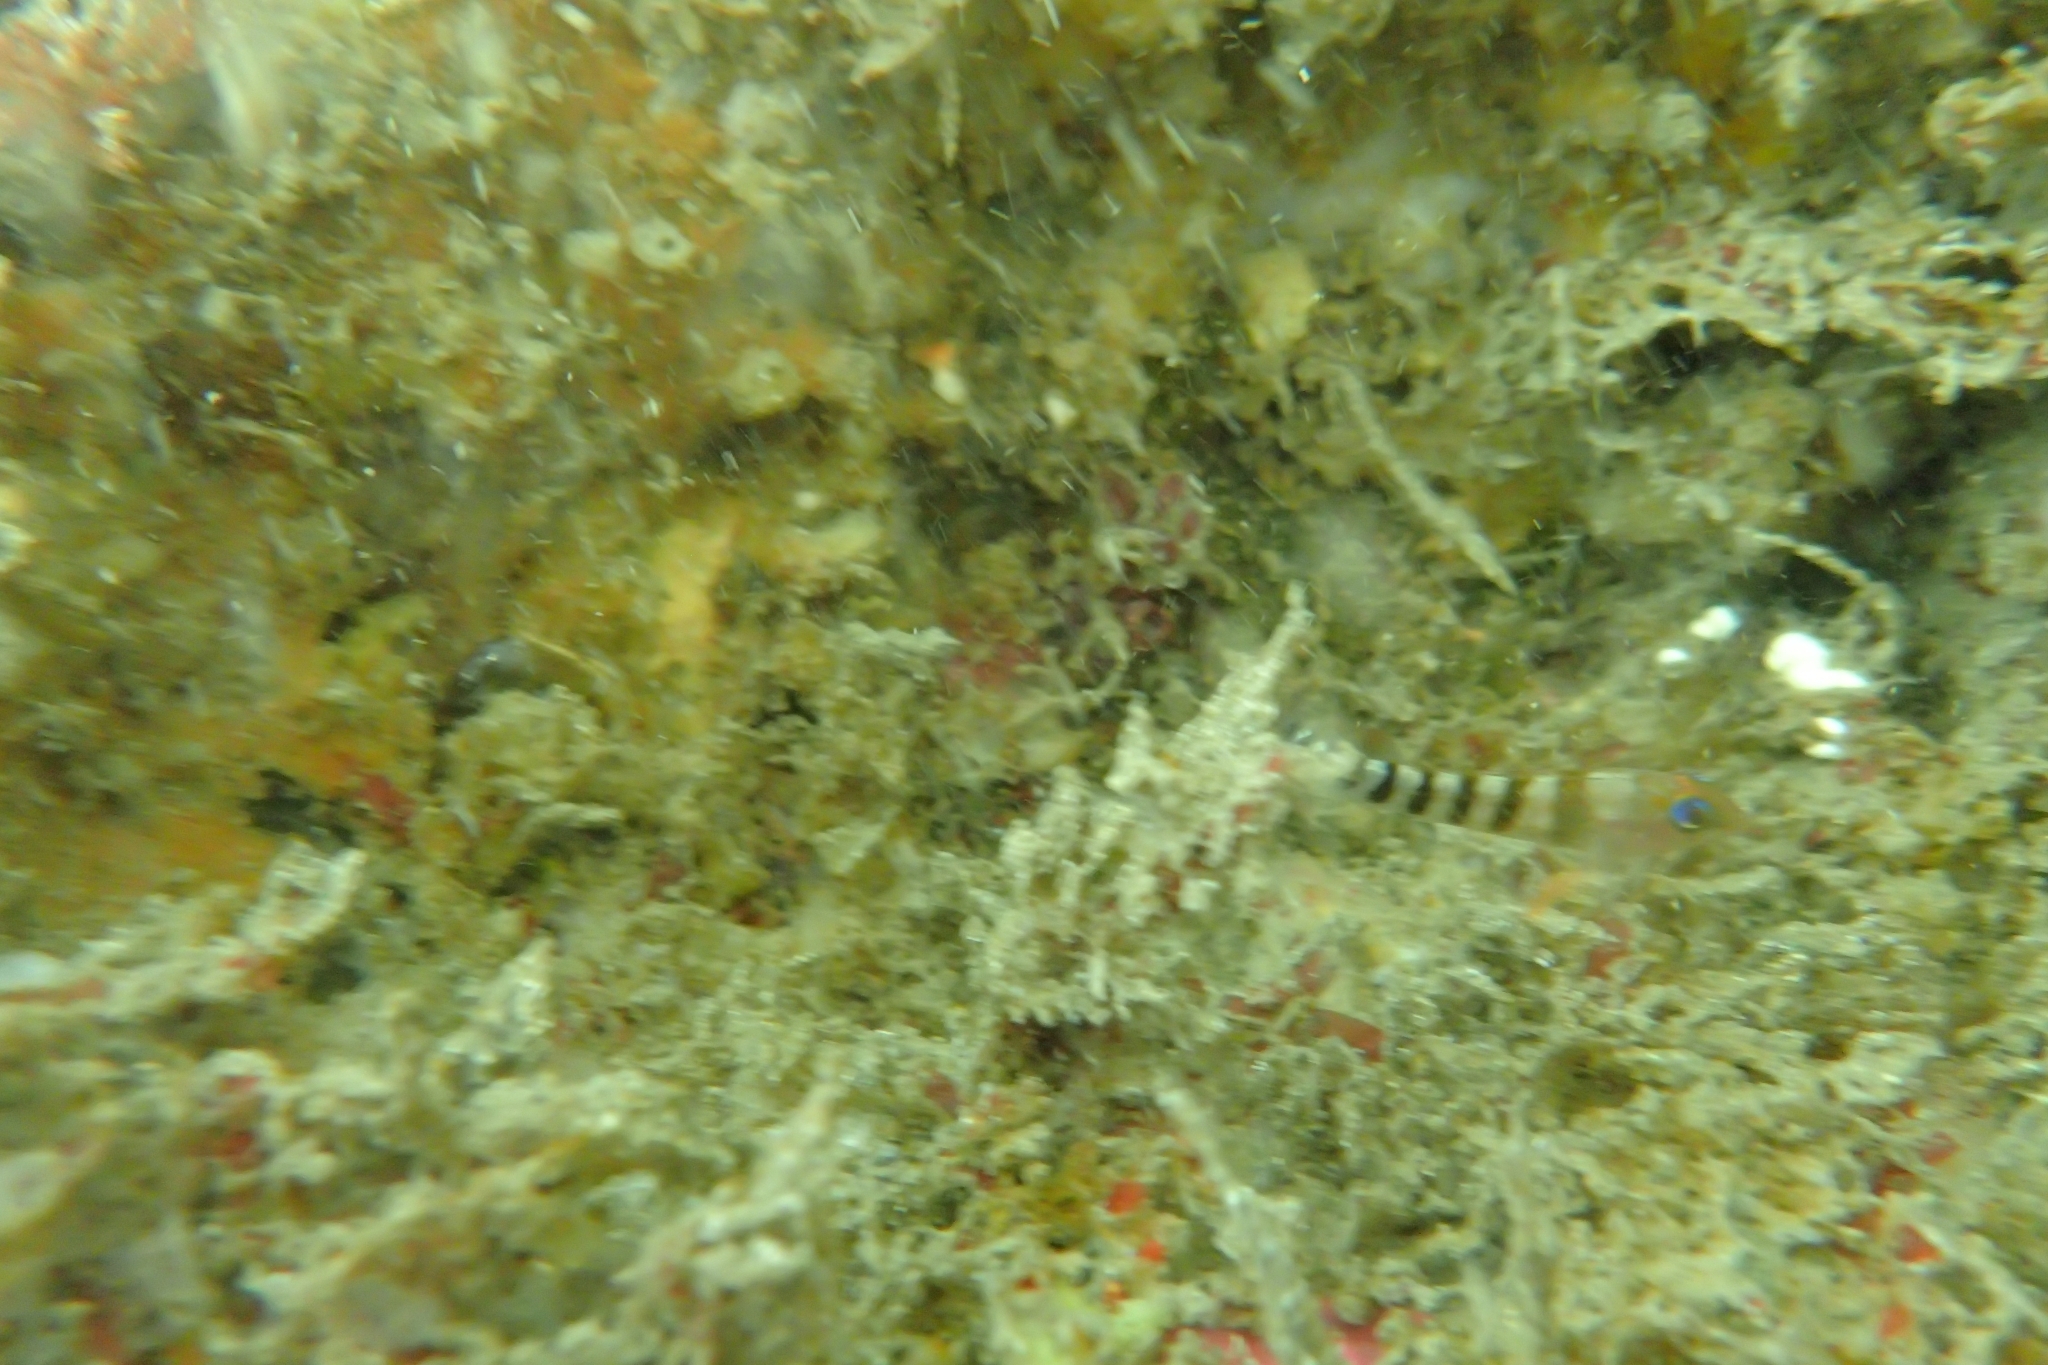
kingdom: Animalia
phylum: Chordata
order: Perciformes
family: Tripterygiidae
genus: Notoclinops
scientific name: Notoclinops segmentatus
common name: Blue-eyed triplefin
